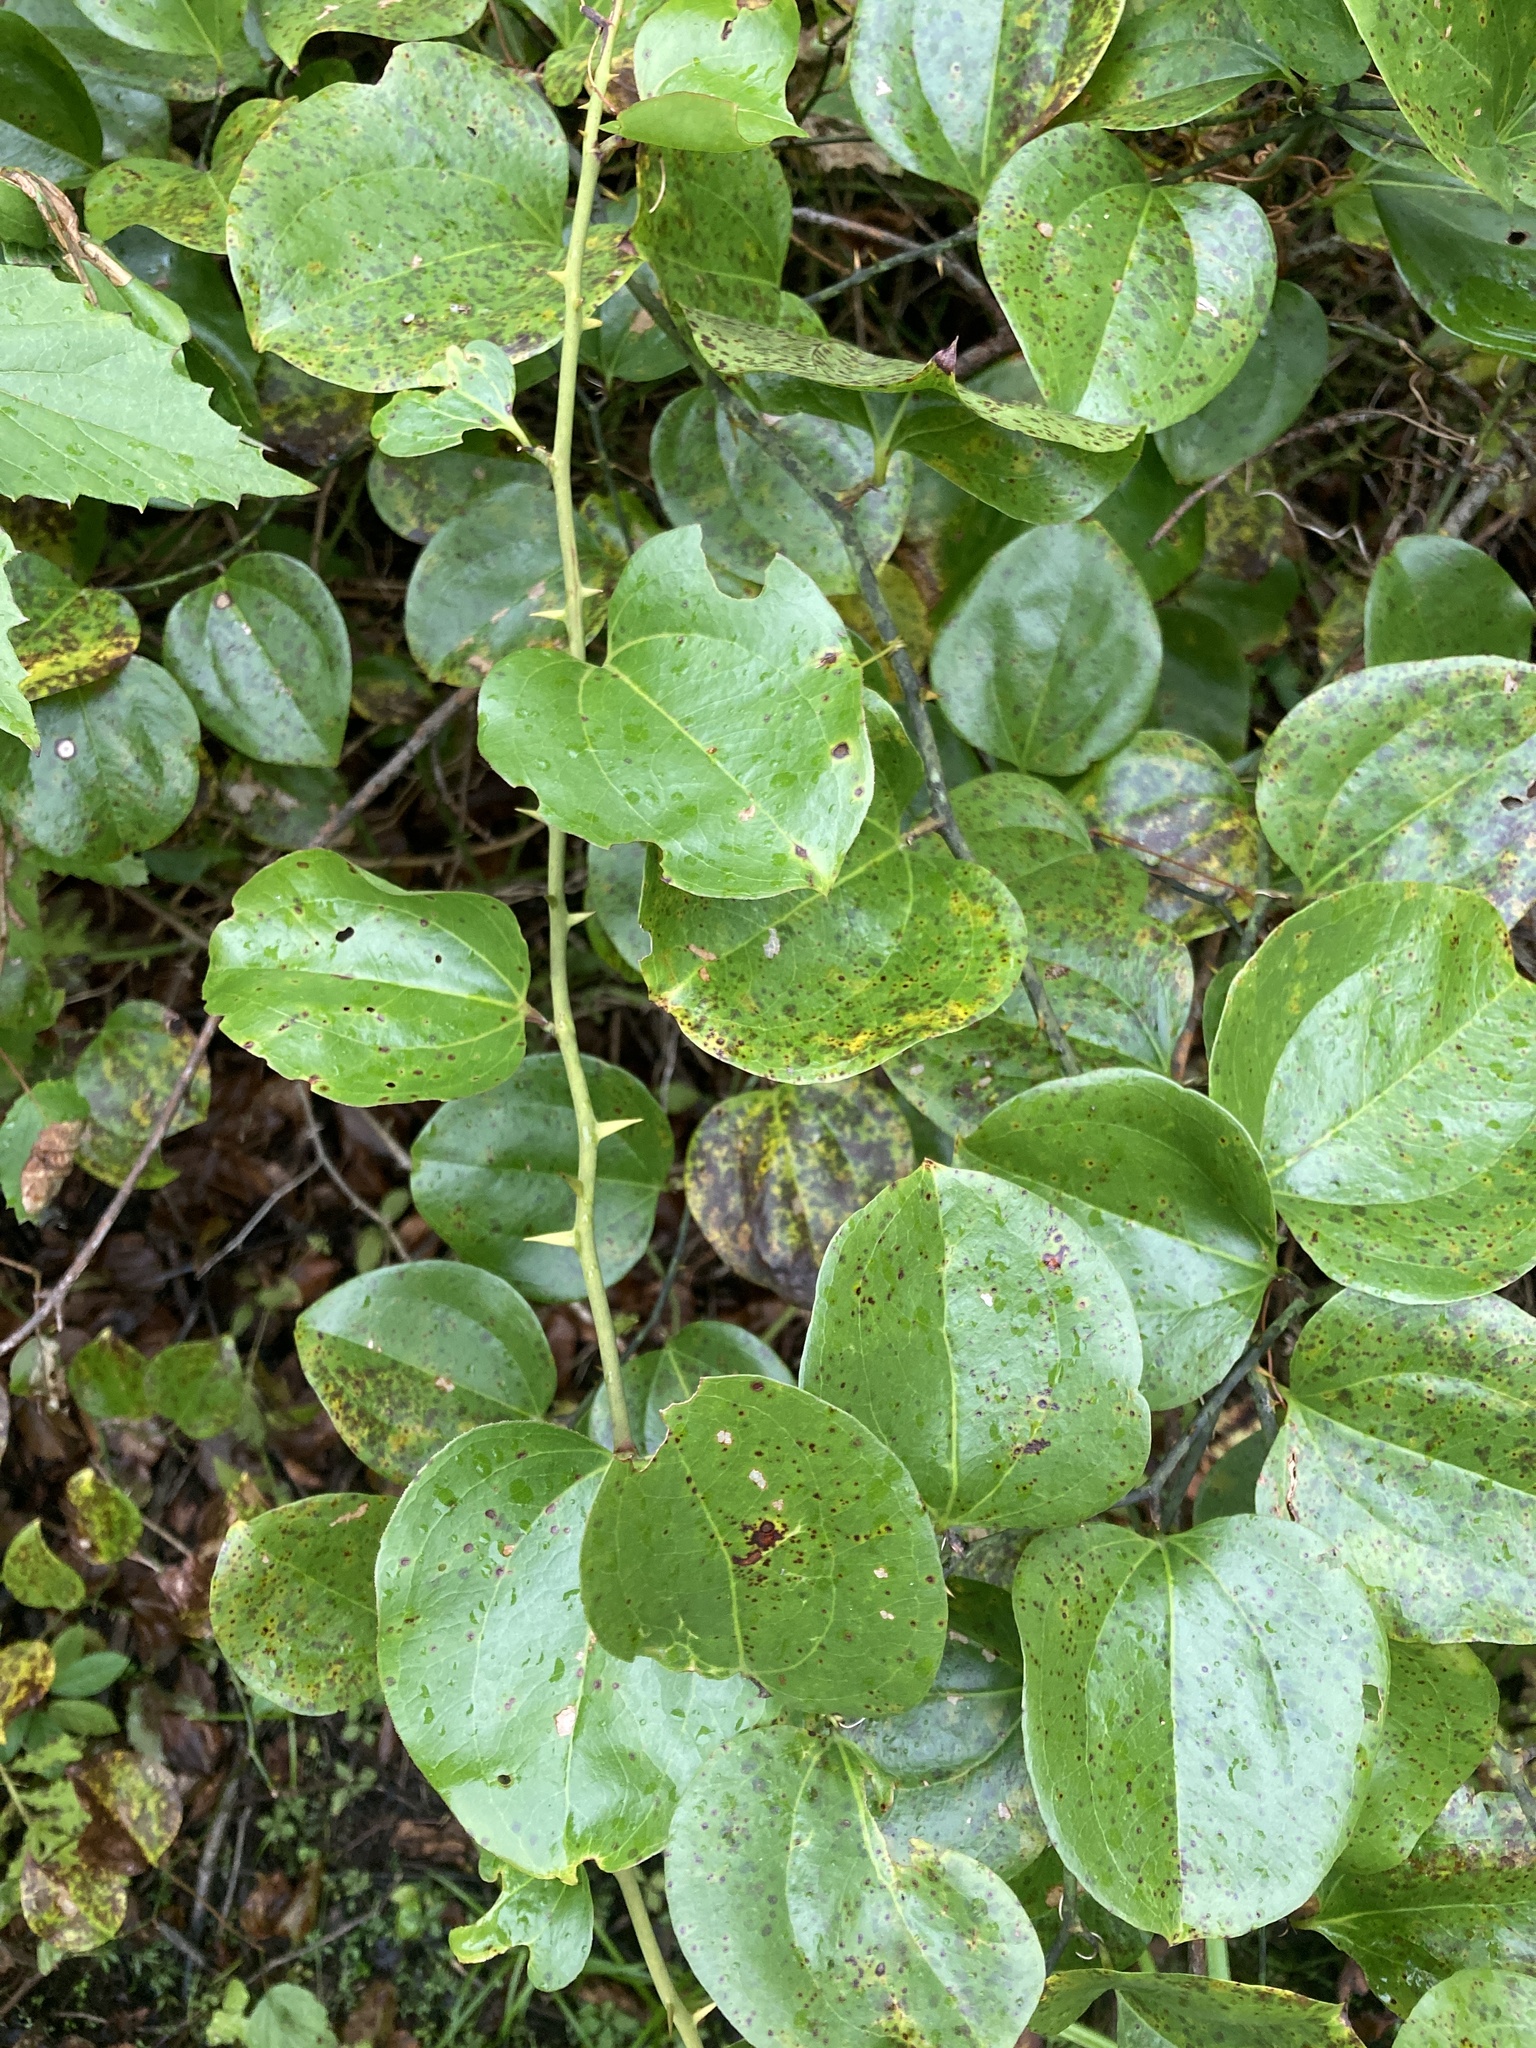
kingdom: Plantae
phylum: Tracheophyta
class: Liliopsida
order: Liliales
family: Smilacaceae
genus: Smilax
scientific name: Smilax rotundifolia
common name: Bullbriar
